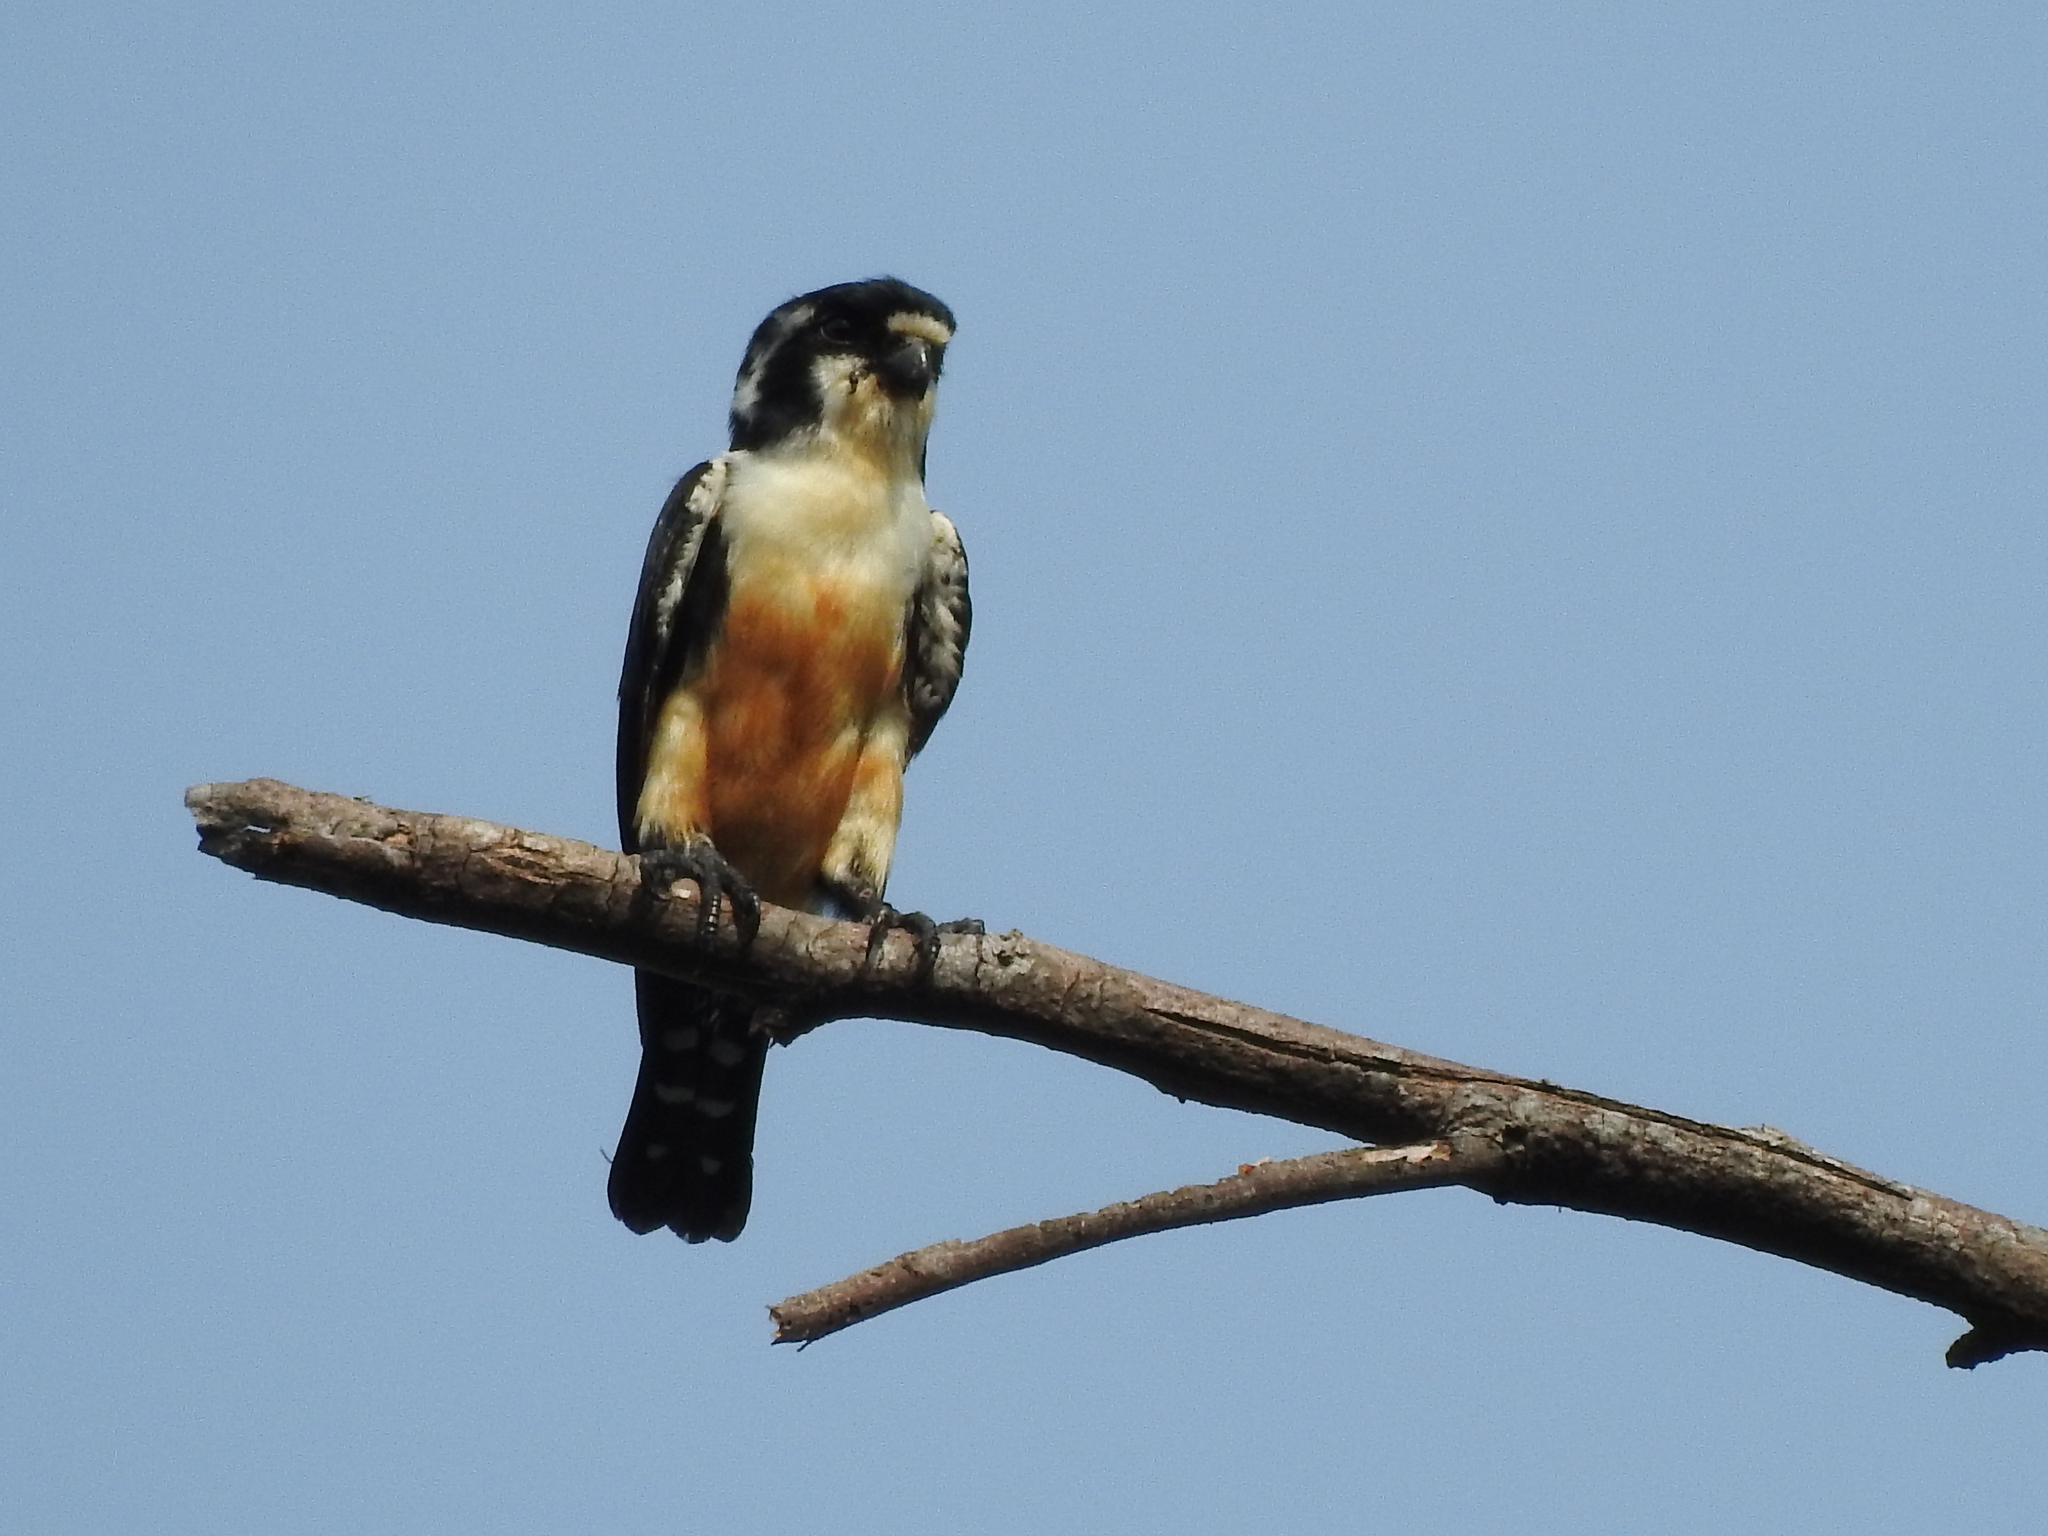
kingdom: Animalia
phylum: Chordata
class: Aves
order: Falconiformes
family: Falconidae
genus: Microhierax
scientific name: Microhierax fringillarius
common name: Black-thighed falconet
